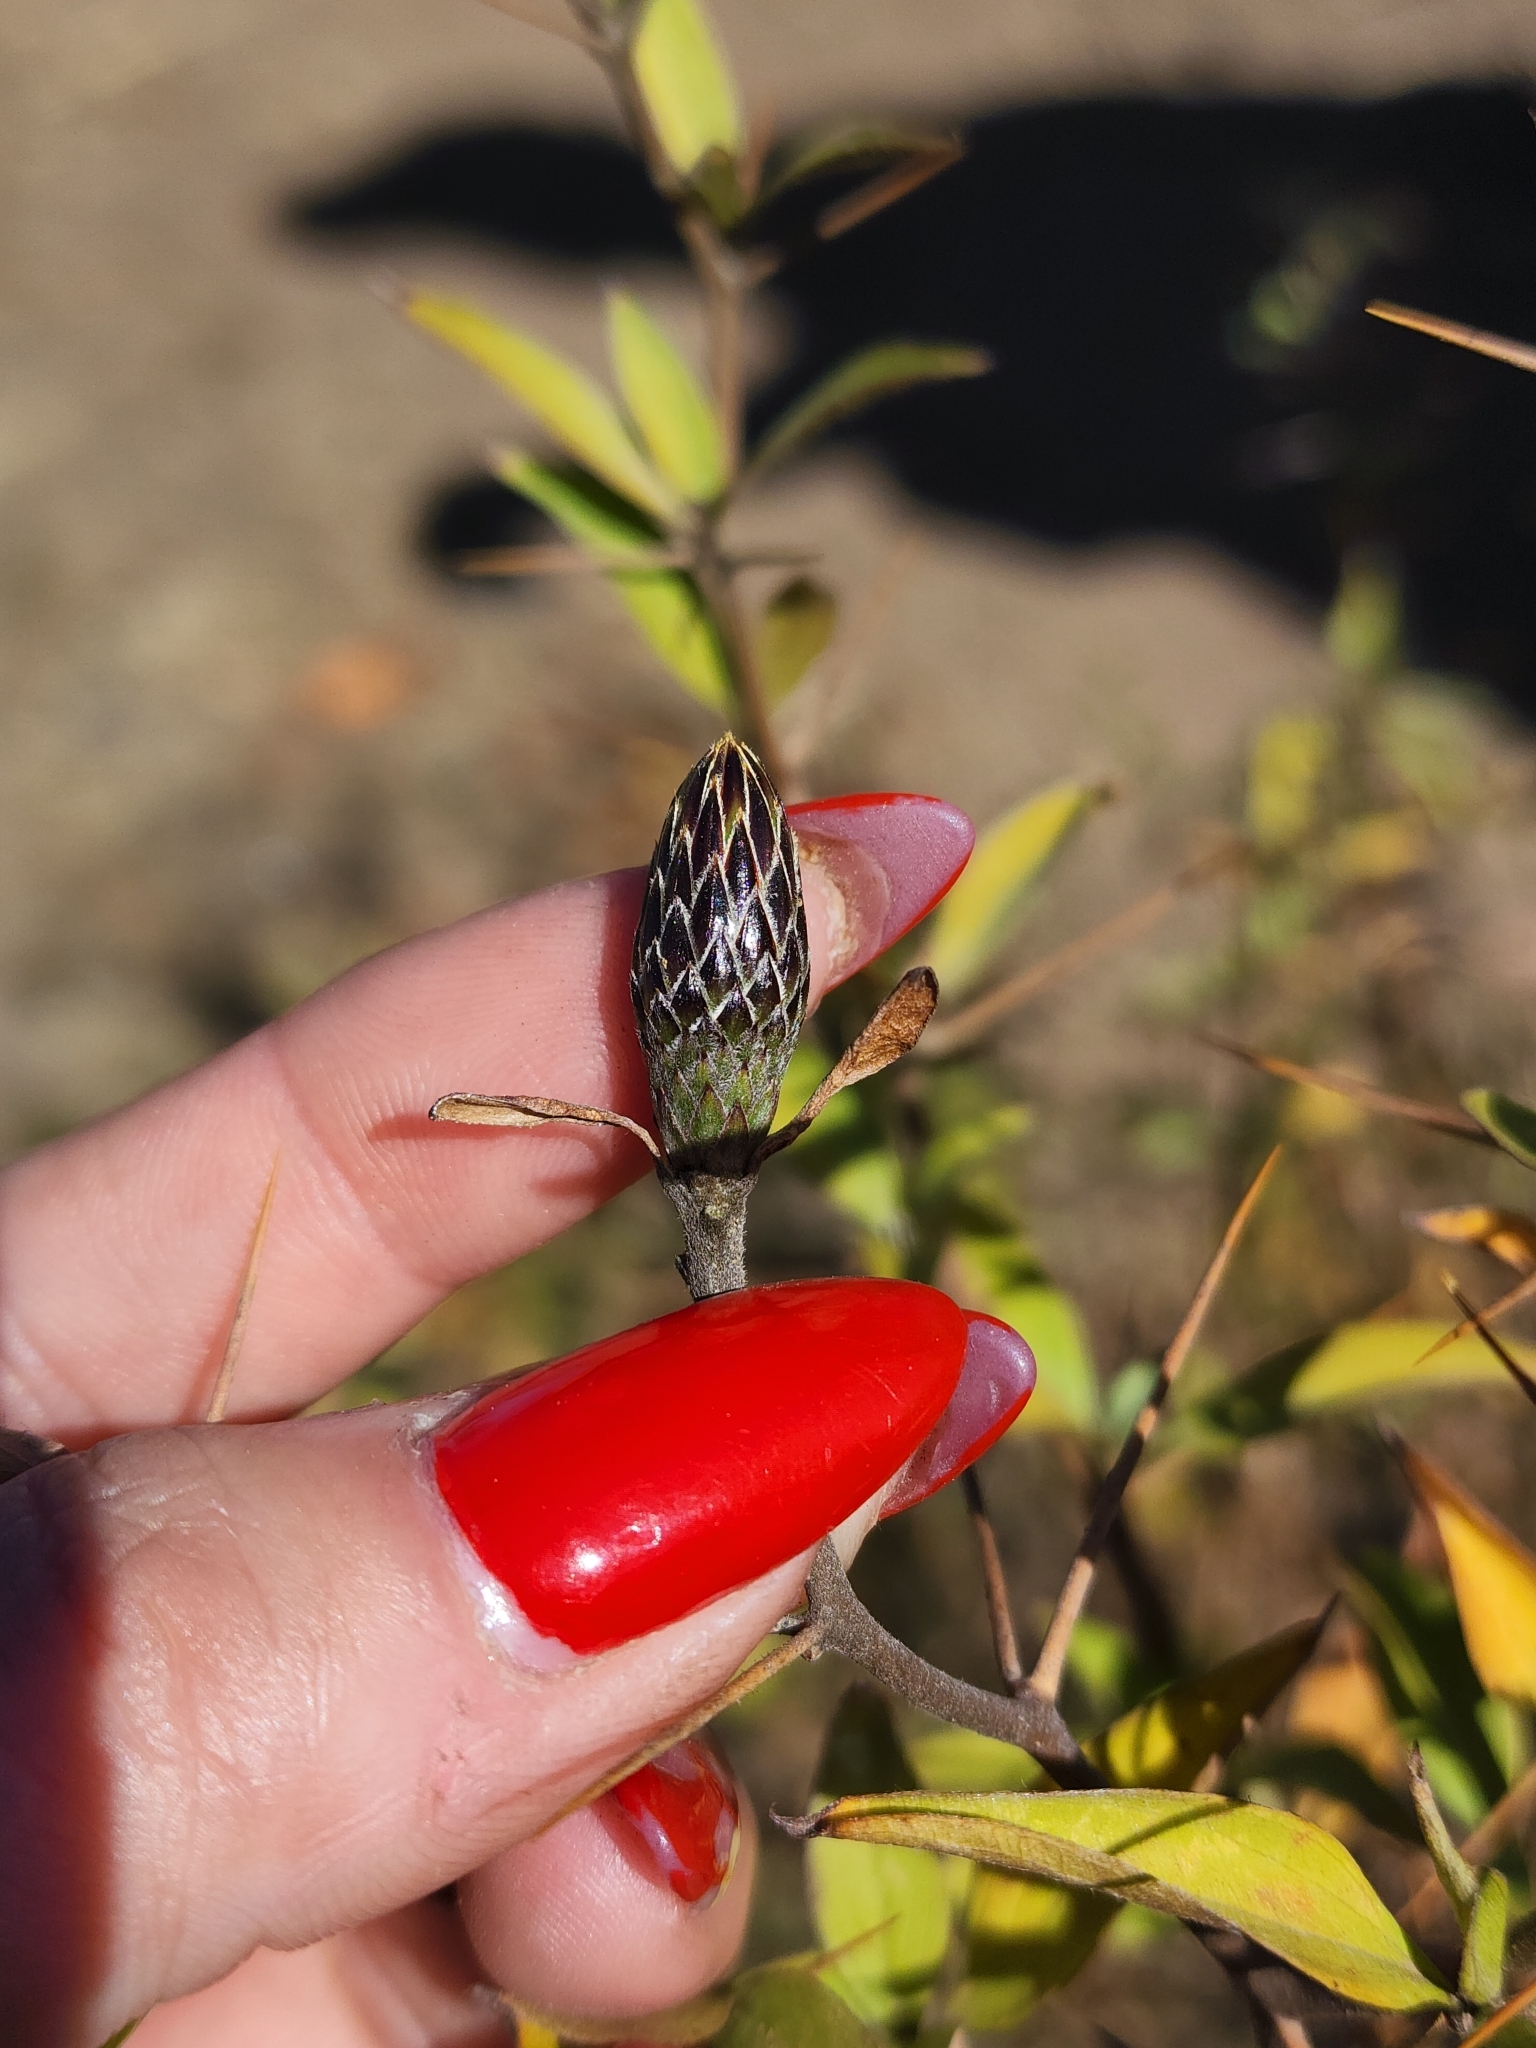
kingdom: Plantae
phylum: Tracheophyta
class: Magnoliopsida
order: Asterales
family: Asteraceae
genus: Barnadesia
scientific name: Barnadesia odorata
